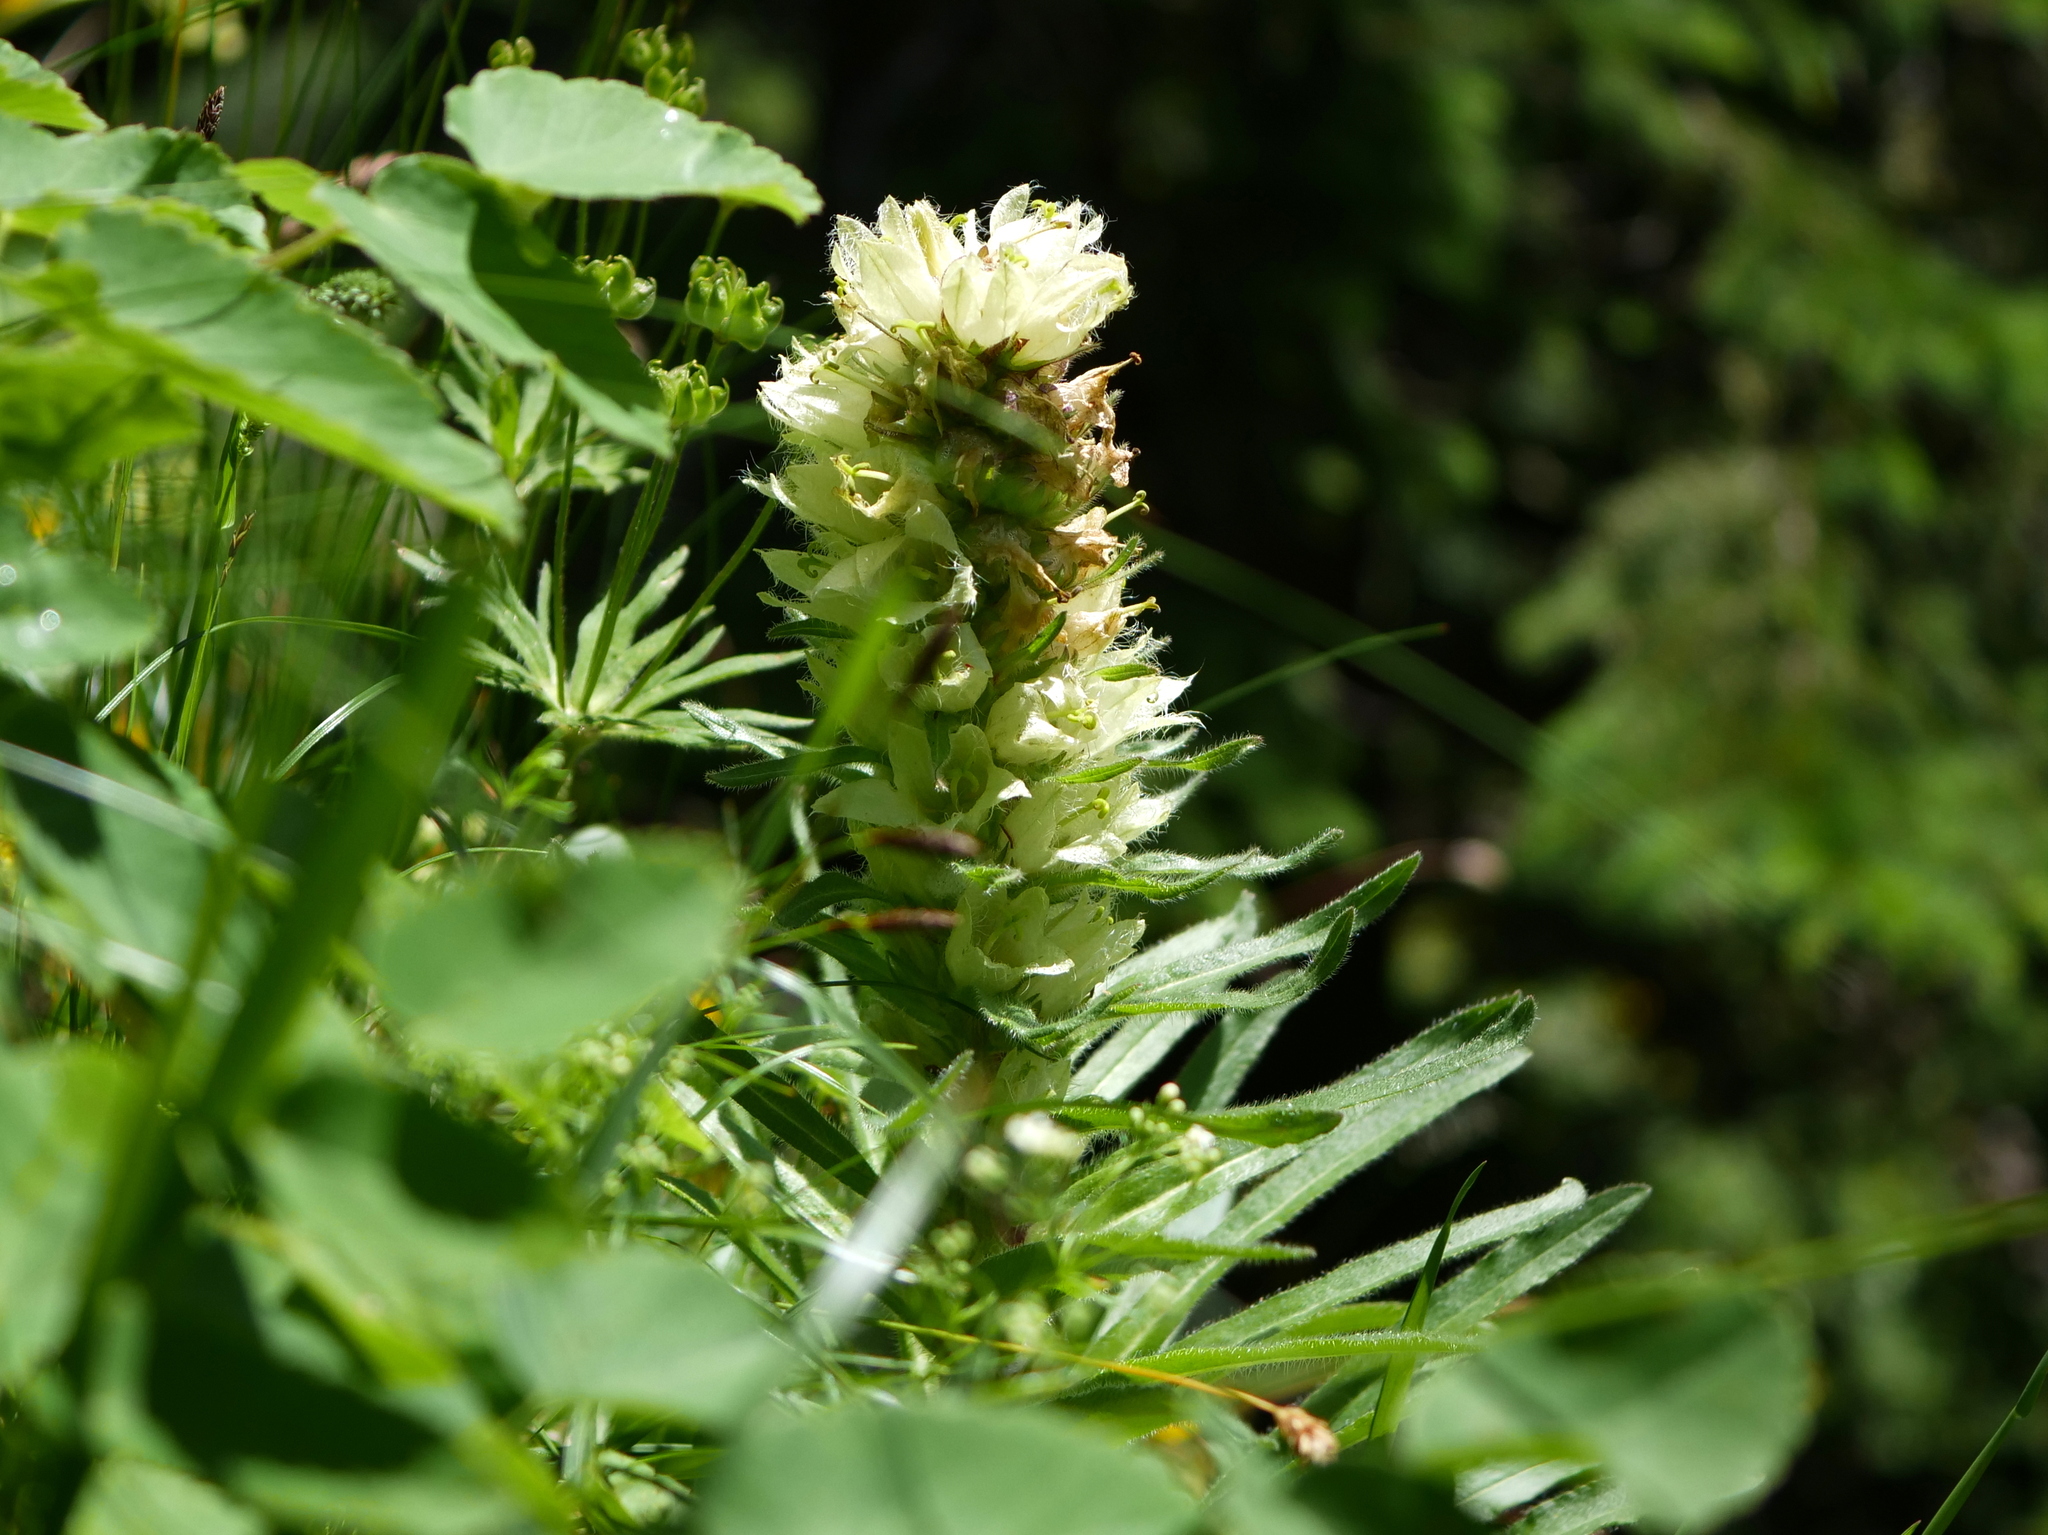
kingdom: Plantae
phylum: Tracheophyta
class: Magnoliopsida
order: Asterales
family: Campanulaceae
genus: Campanula
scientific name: Campanula thyrsoides
